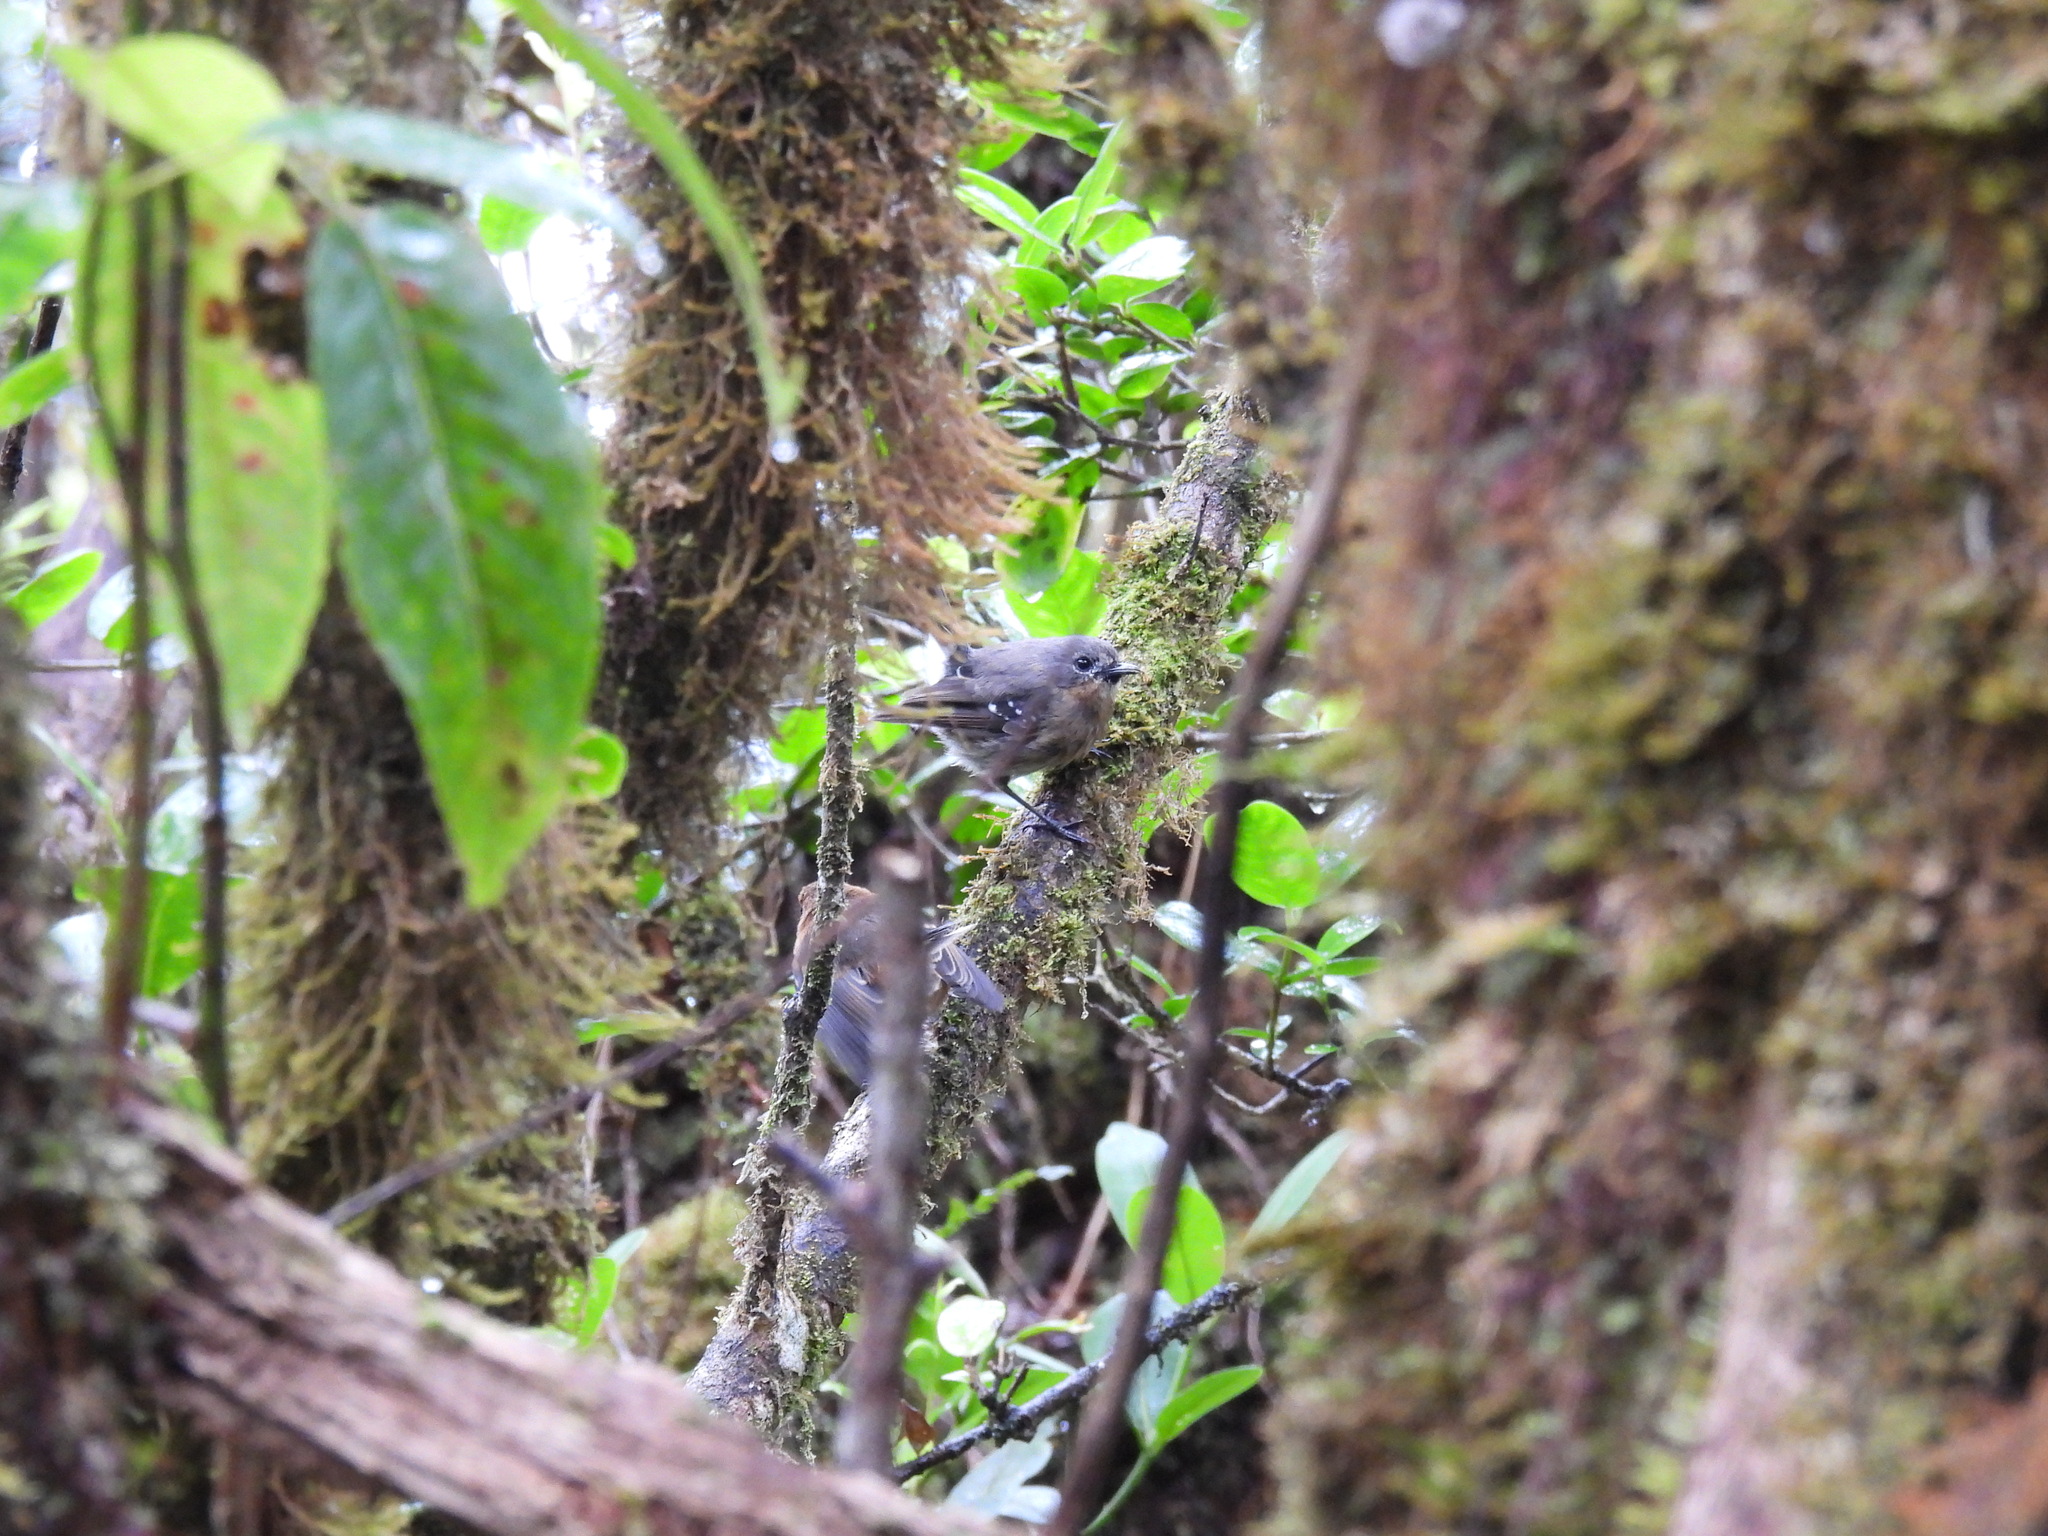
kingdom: Animalia
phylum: Chordata
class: Aves
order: Passeriformes
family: Monarchidae
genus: Chasiempis
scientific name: Chasiempis sclateri
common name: Kauai elepaio
